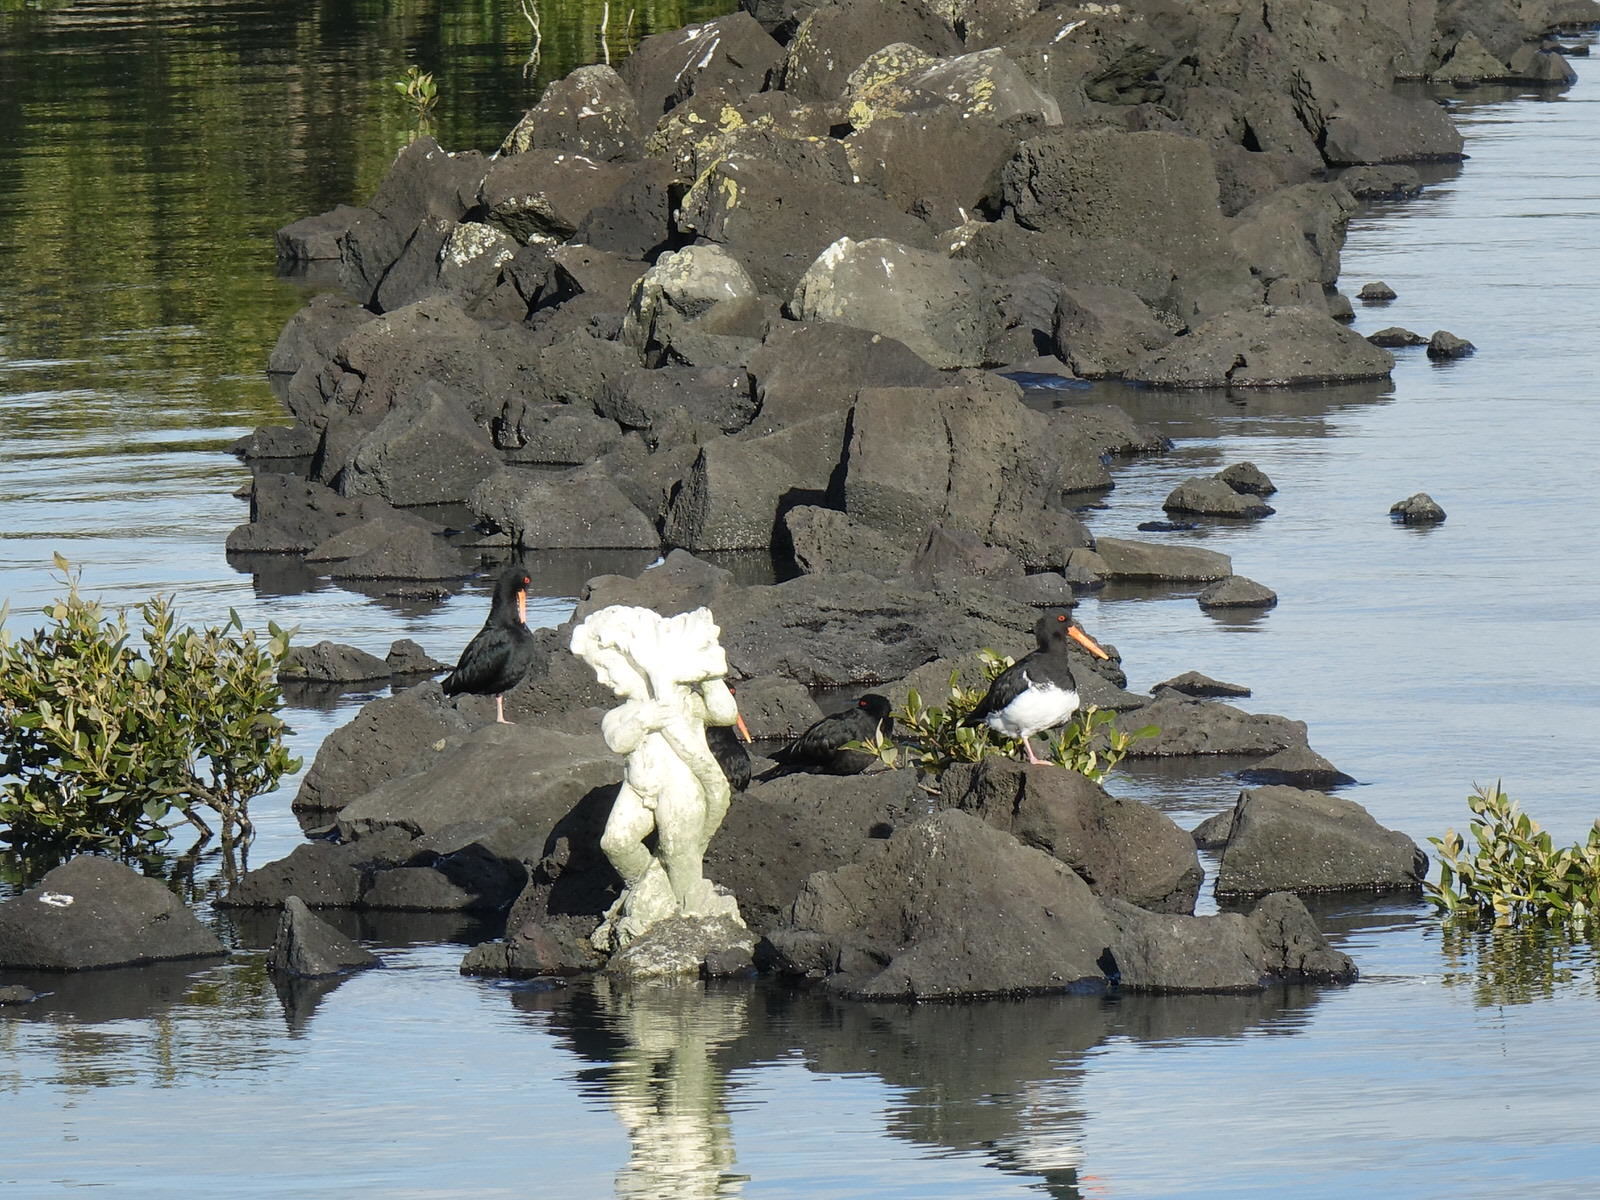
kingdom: Animalia
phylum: Chordata
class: Aves
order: Charadriiformes
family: Haematopodidae
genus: Haematopus
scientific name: Haematopus unicolor
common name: Variable oystercatcher
